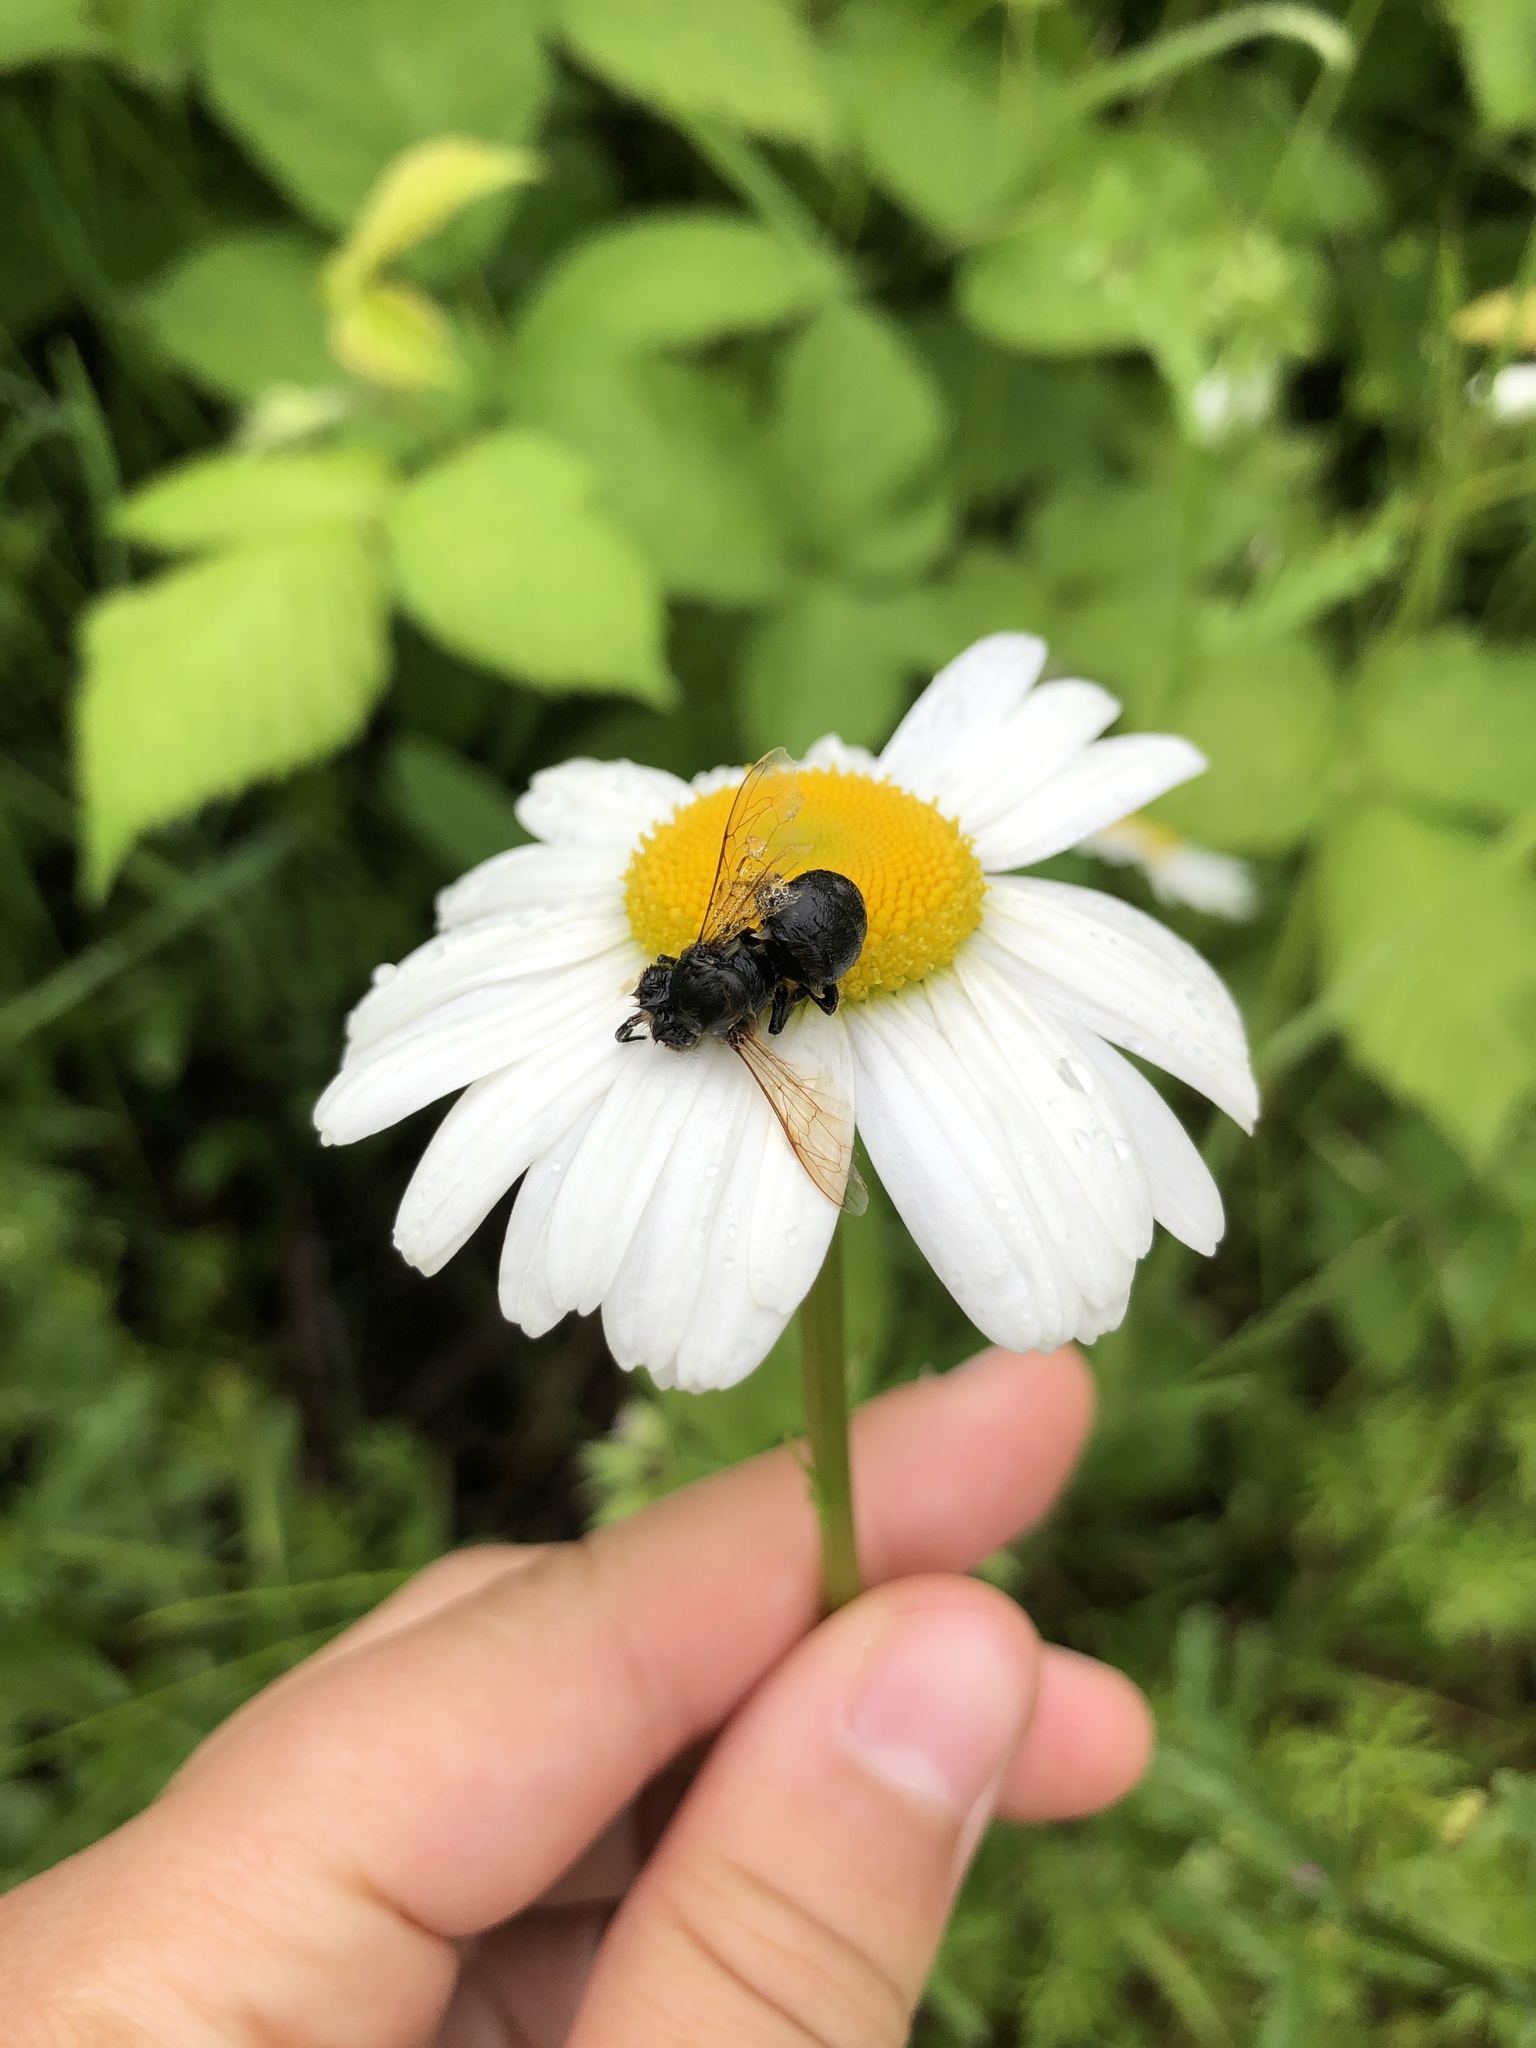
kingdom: Animalia
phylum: Arthropoda
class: Insecta
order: Hymenoptera
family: Apidae
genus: Apis
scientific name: Apis mellifera
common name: Honey bee
